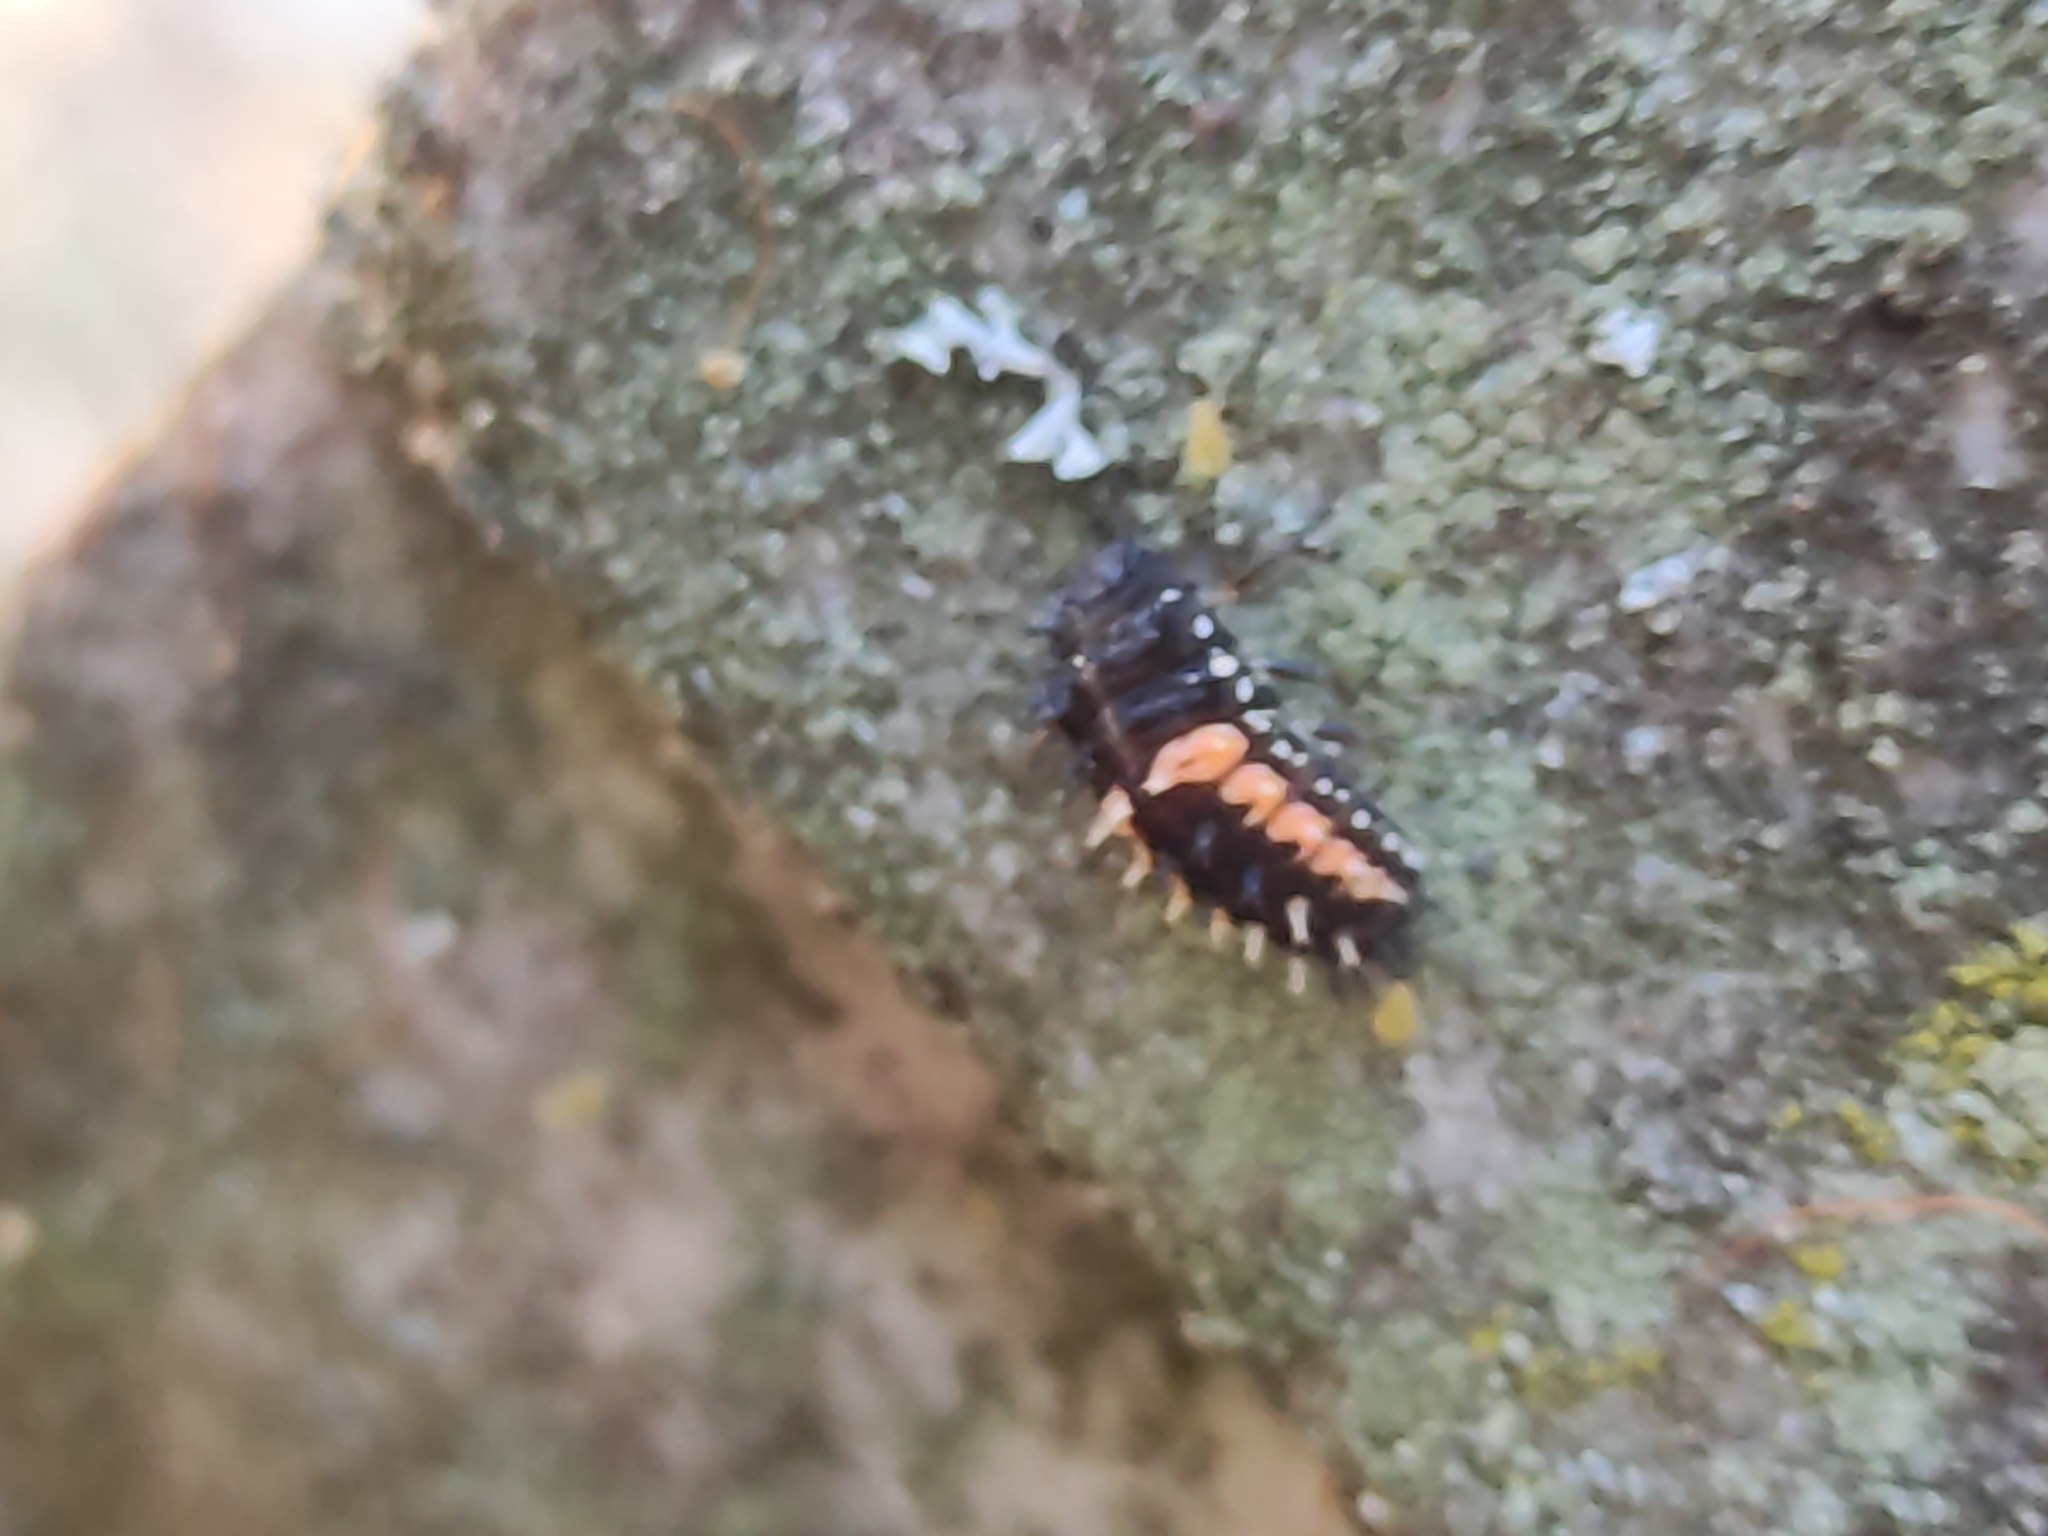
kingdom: Animalia
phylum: Arthropoda
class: Insecta
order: Coleoptera
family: Coccinellidae
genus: Harmonia
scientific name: Harmonia axyridis
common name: Harlequin ladybird
